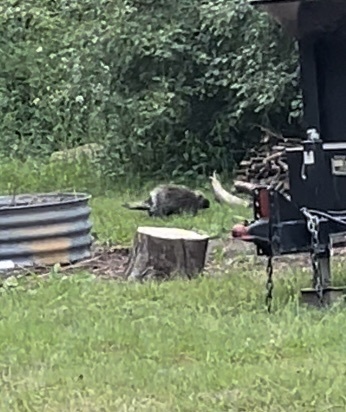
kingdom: Animalia
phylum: Chordata
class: Mammalia
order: Rodentia
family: Erethizontidae
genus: Erethizon
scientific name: Erethizon dorsatus
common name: North american porcupine
